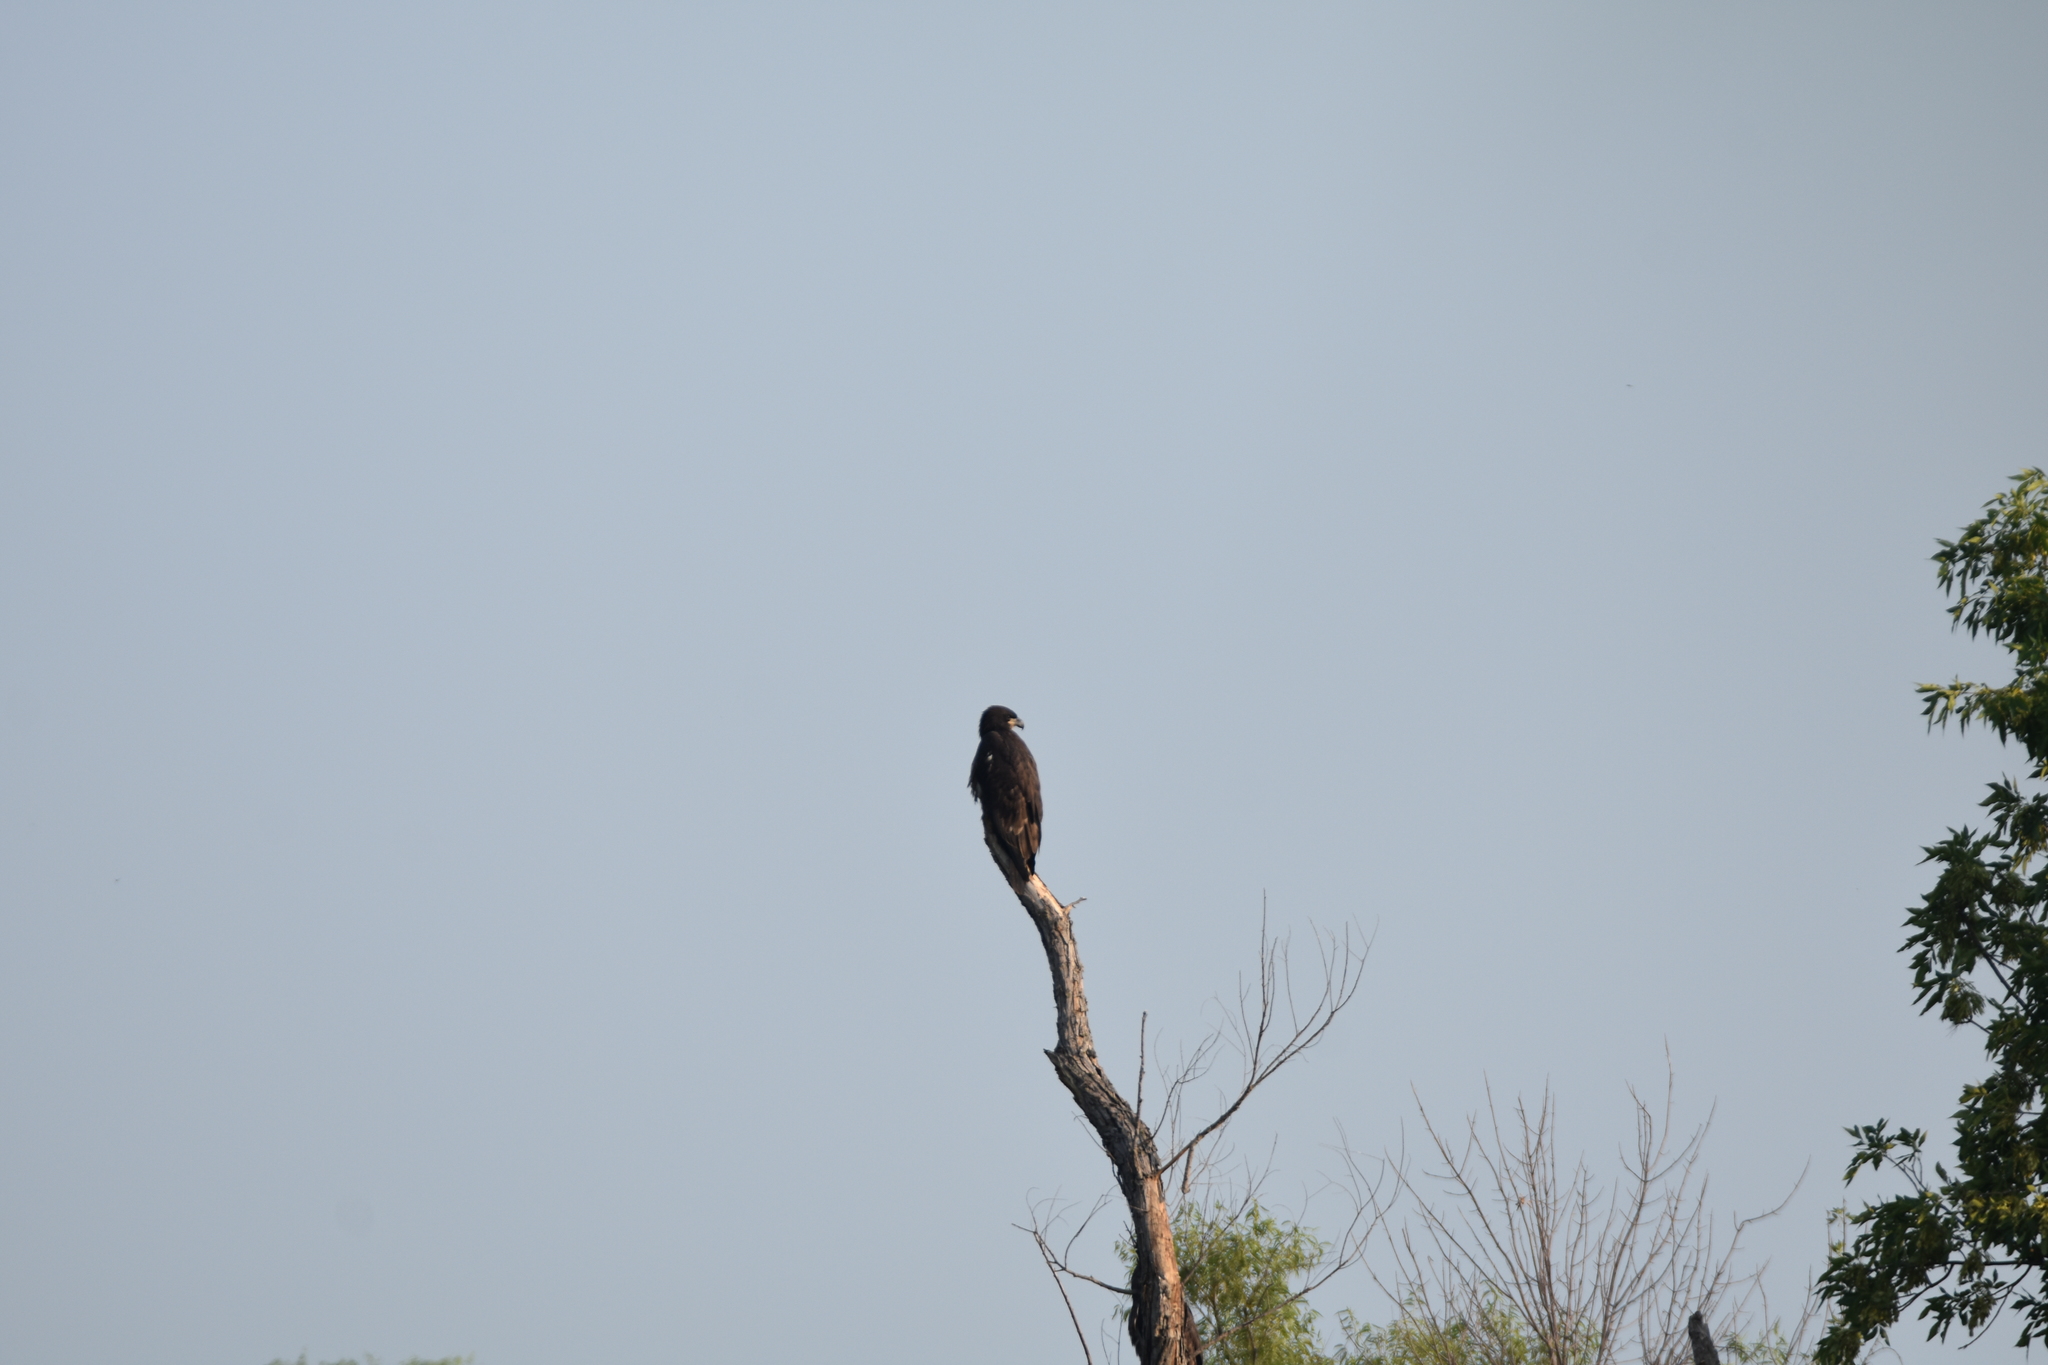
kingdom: Animalia
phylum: Chordata
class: Aves
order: Accipitriformes
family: Accipitridae
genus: Haliaeetus
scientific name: Haliaeetus leucocephalus
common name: Bald eagle
